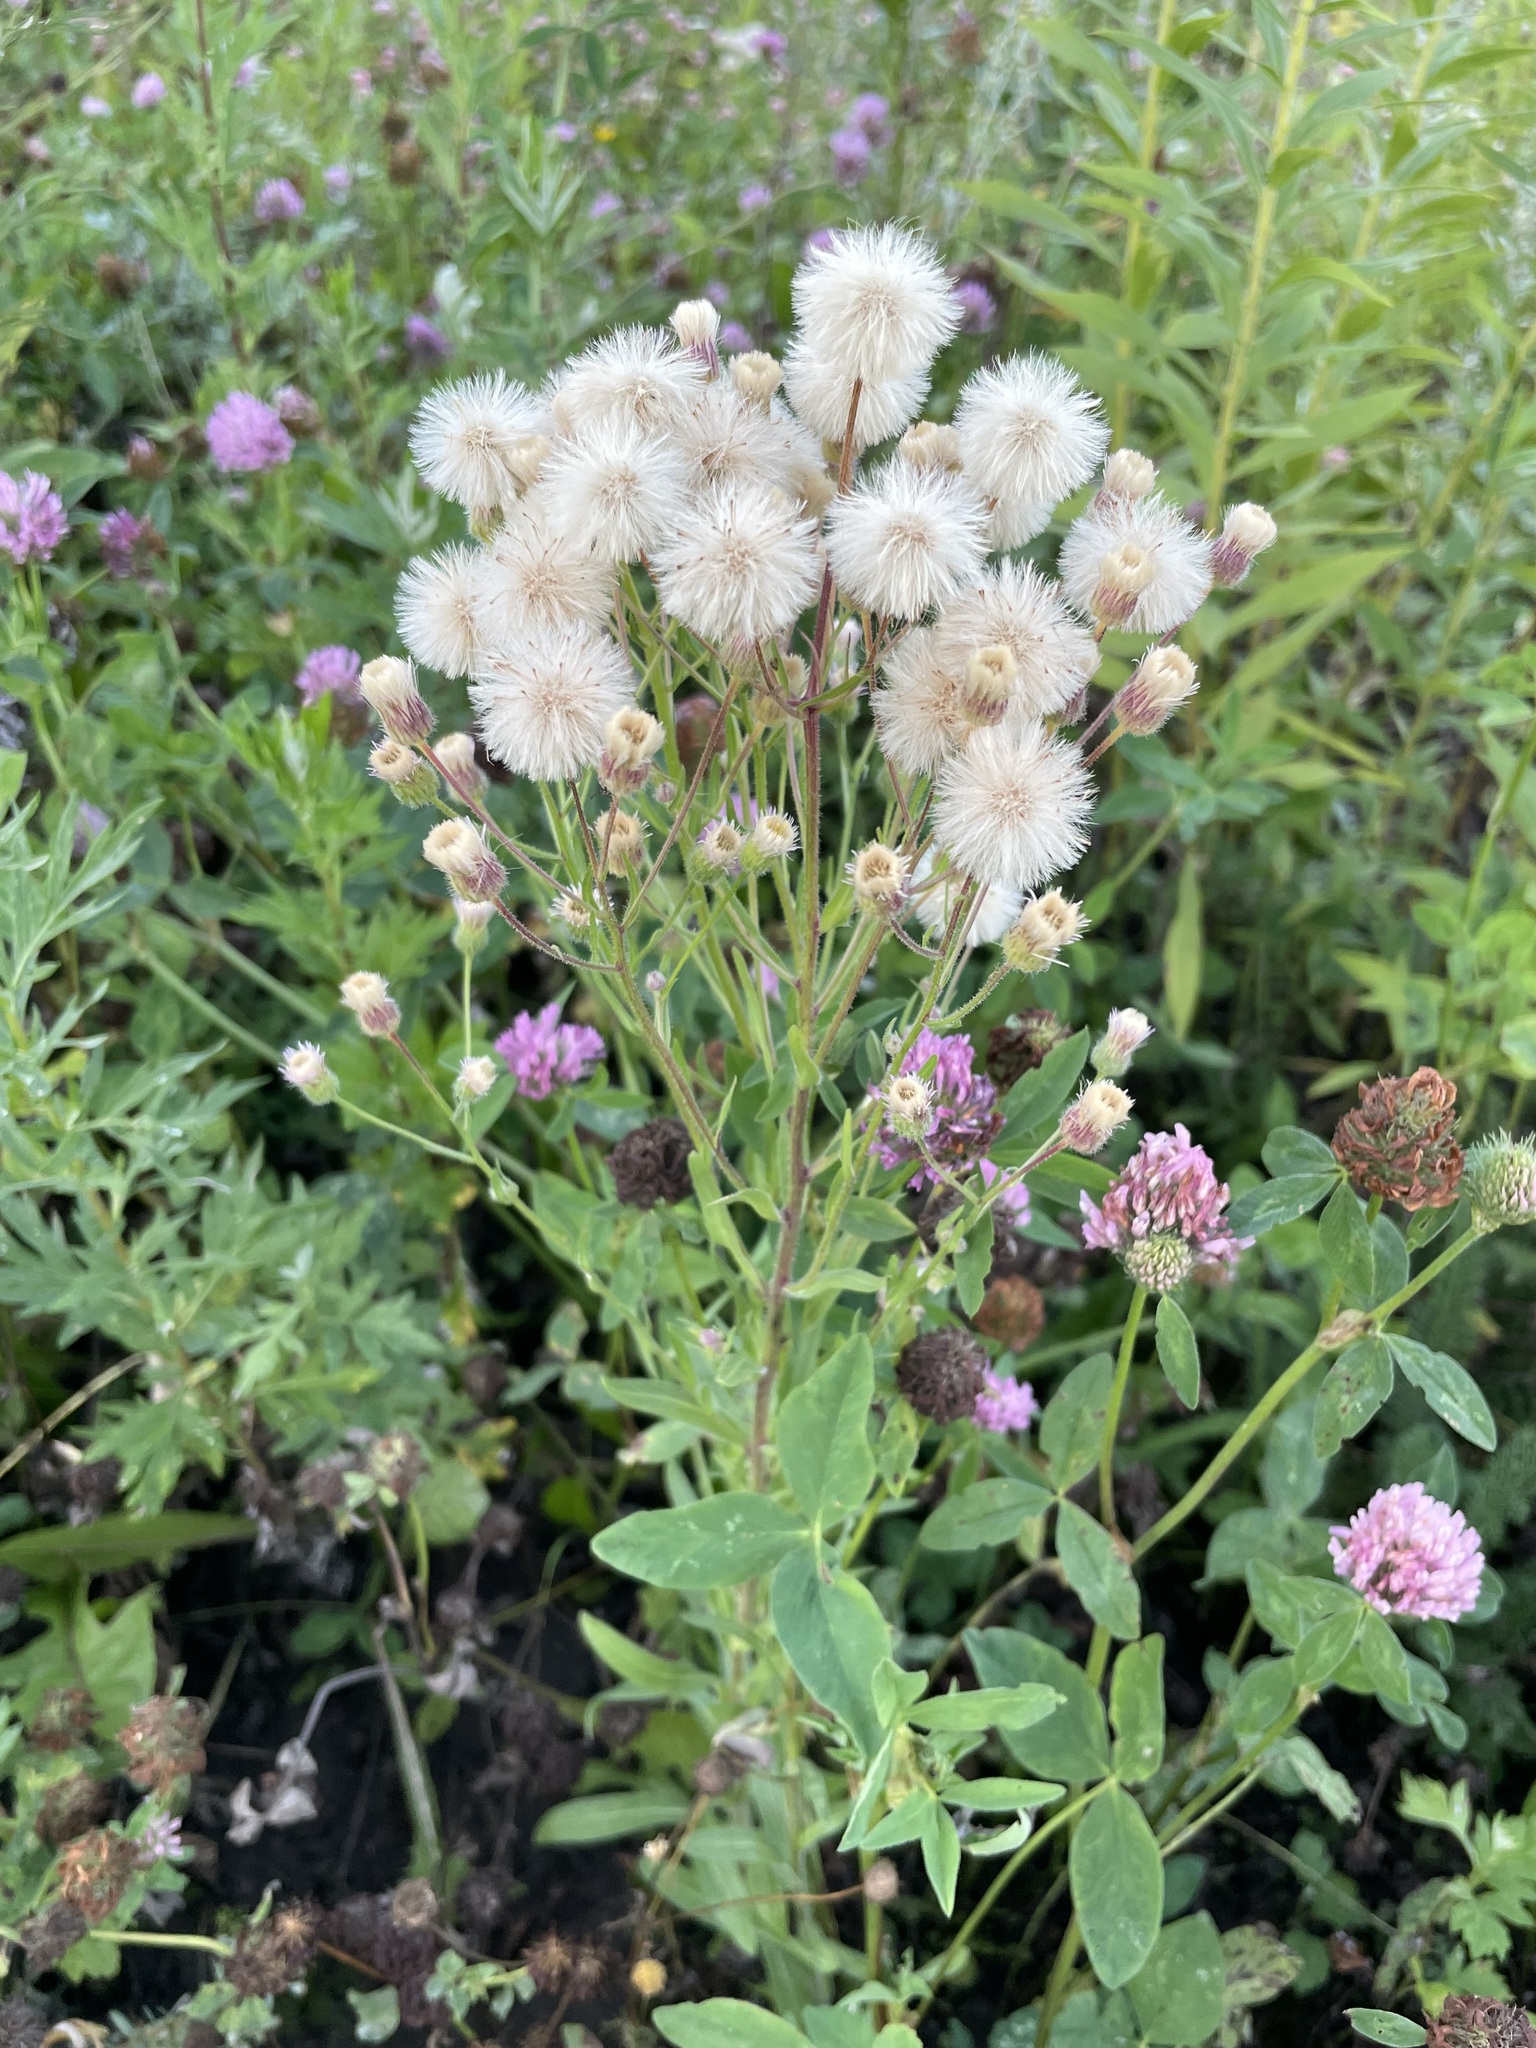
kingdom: Plantae
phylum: Tracheophyta
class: Magnoliopsida
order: Asterales
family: Asteraceae
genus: Erigeron
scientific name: Erigeron acris
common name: Blue fleabane
